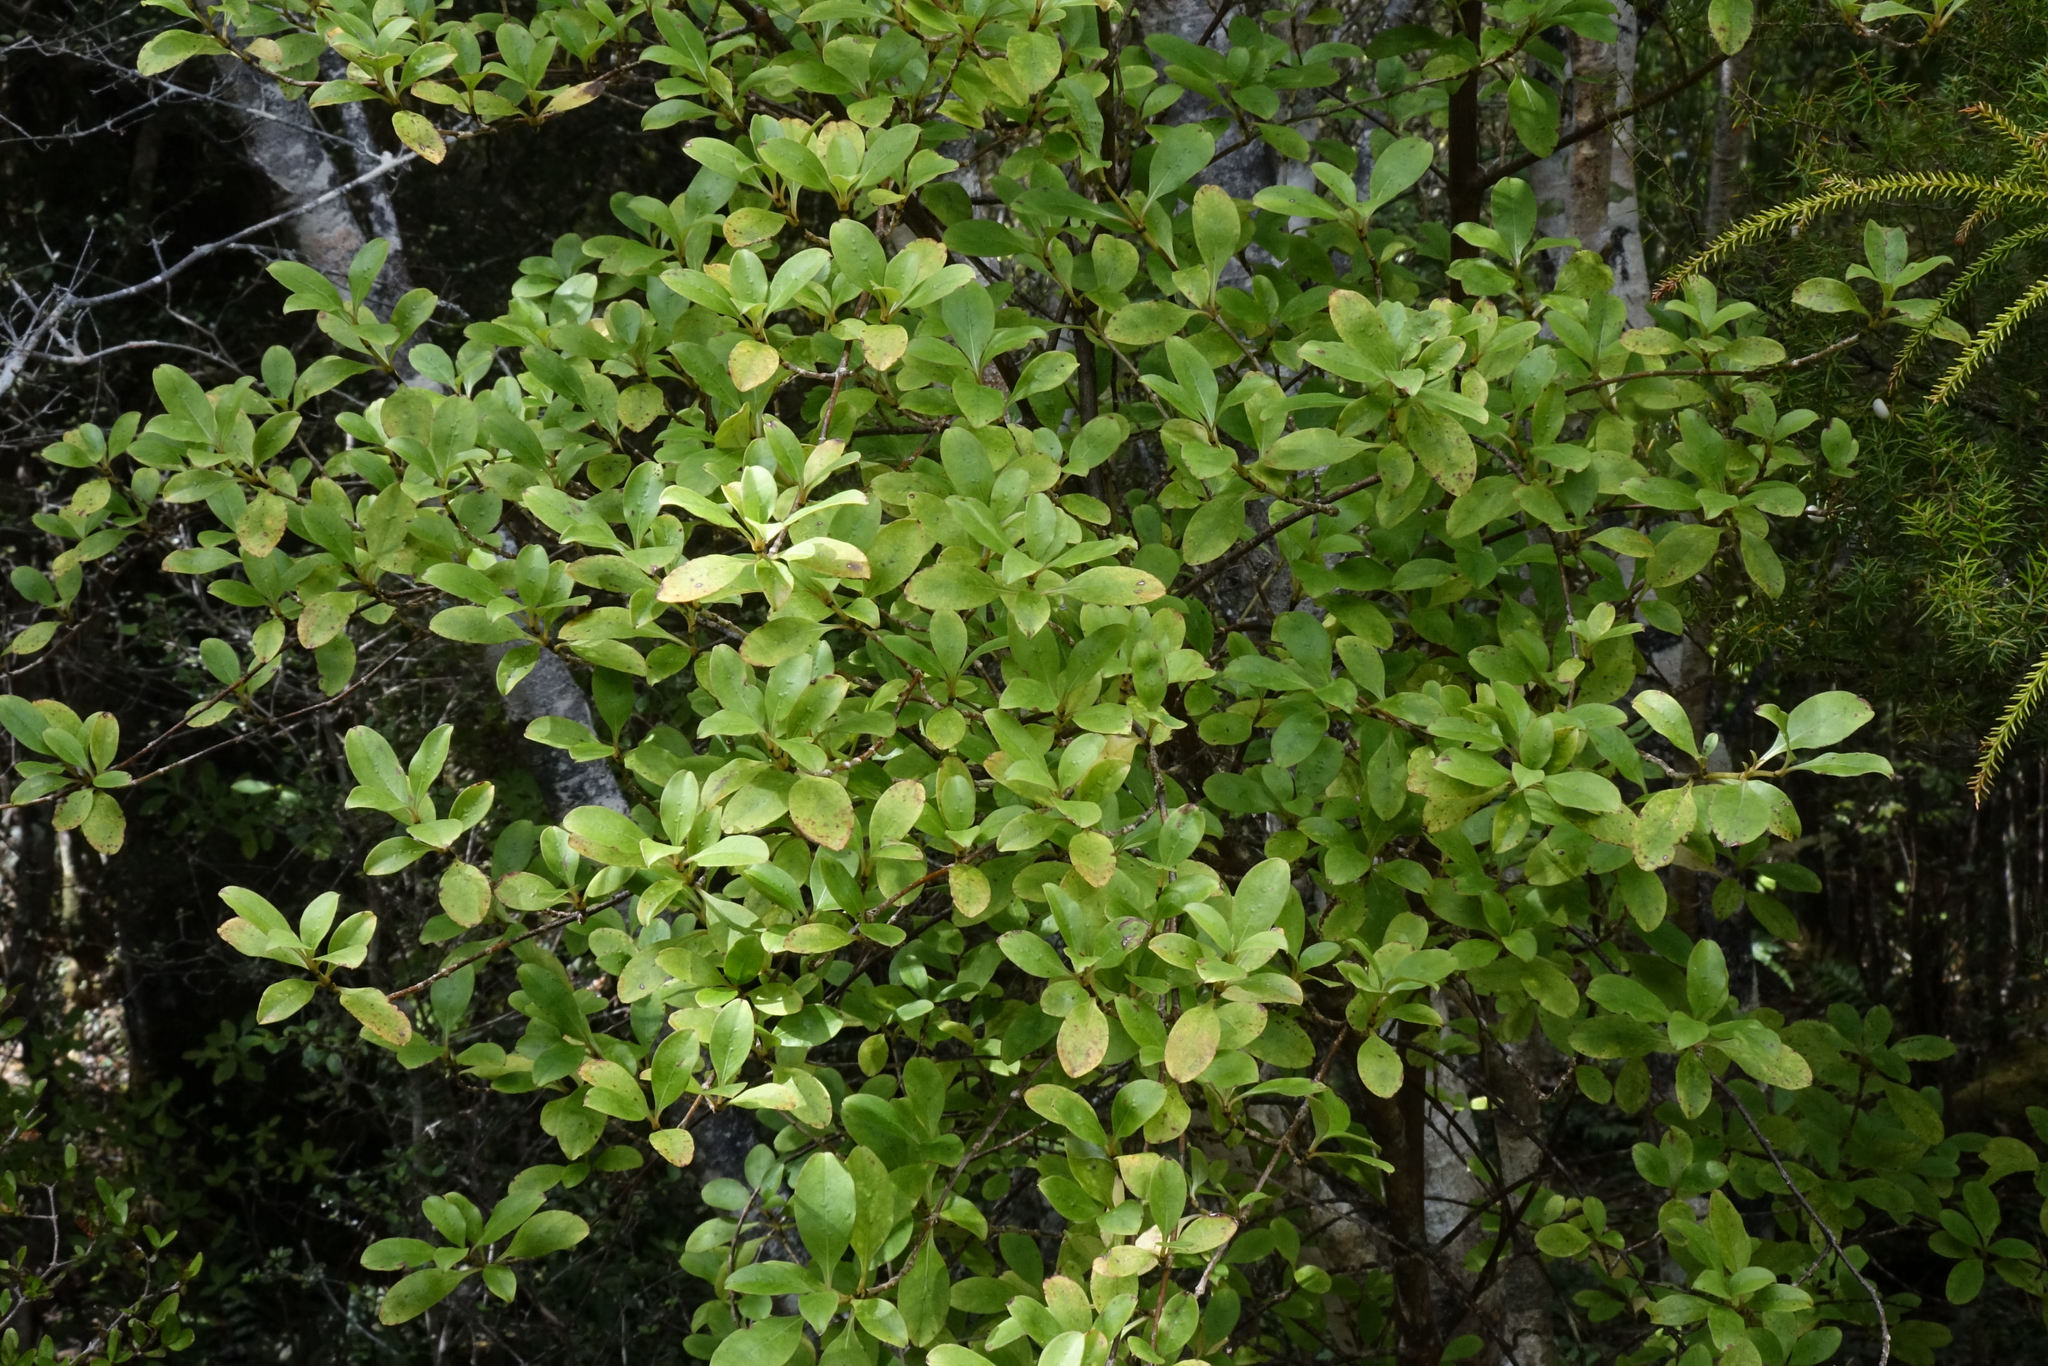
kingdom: Plantae
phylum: Tracheophyta
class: Magnoliopsida
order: Gentianales
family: Rubiaceae
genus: Coprosma
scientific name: Coprosma foetidissima
